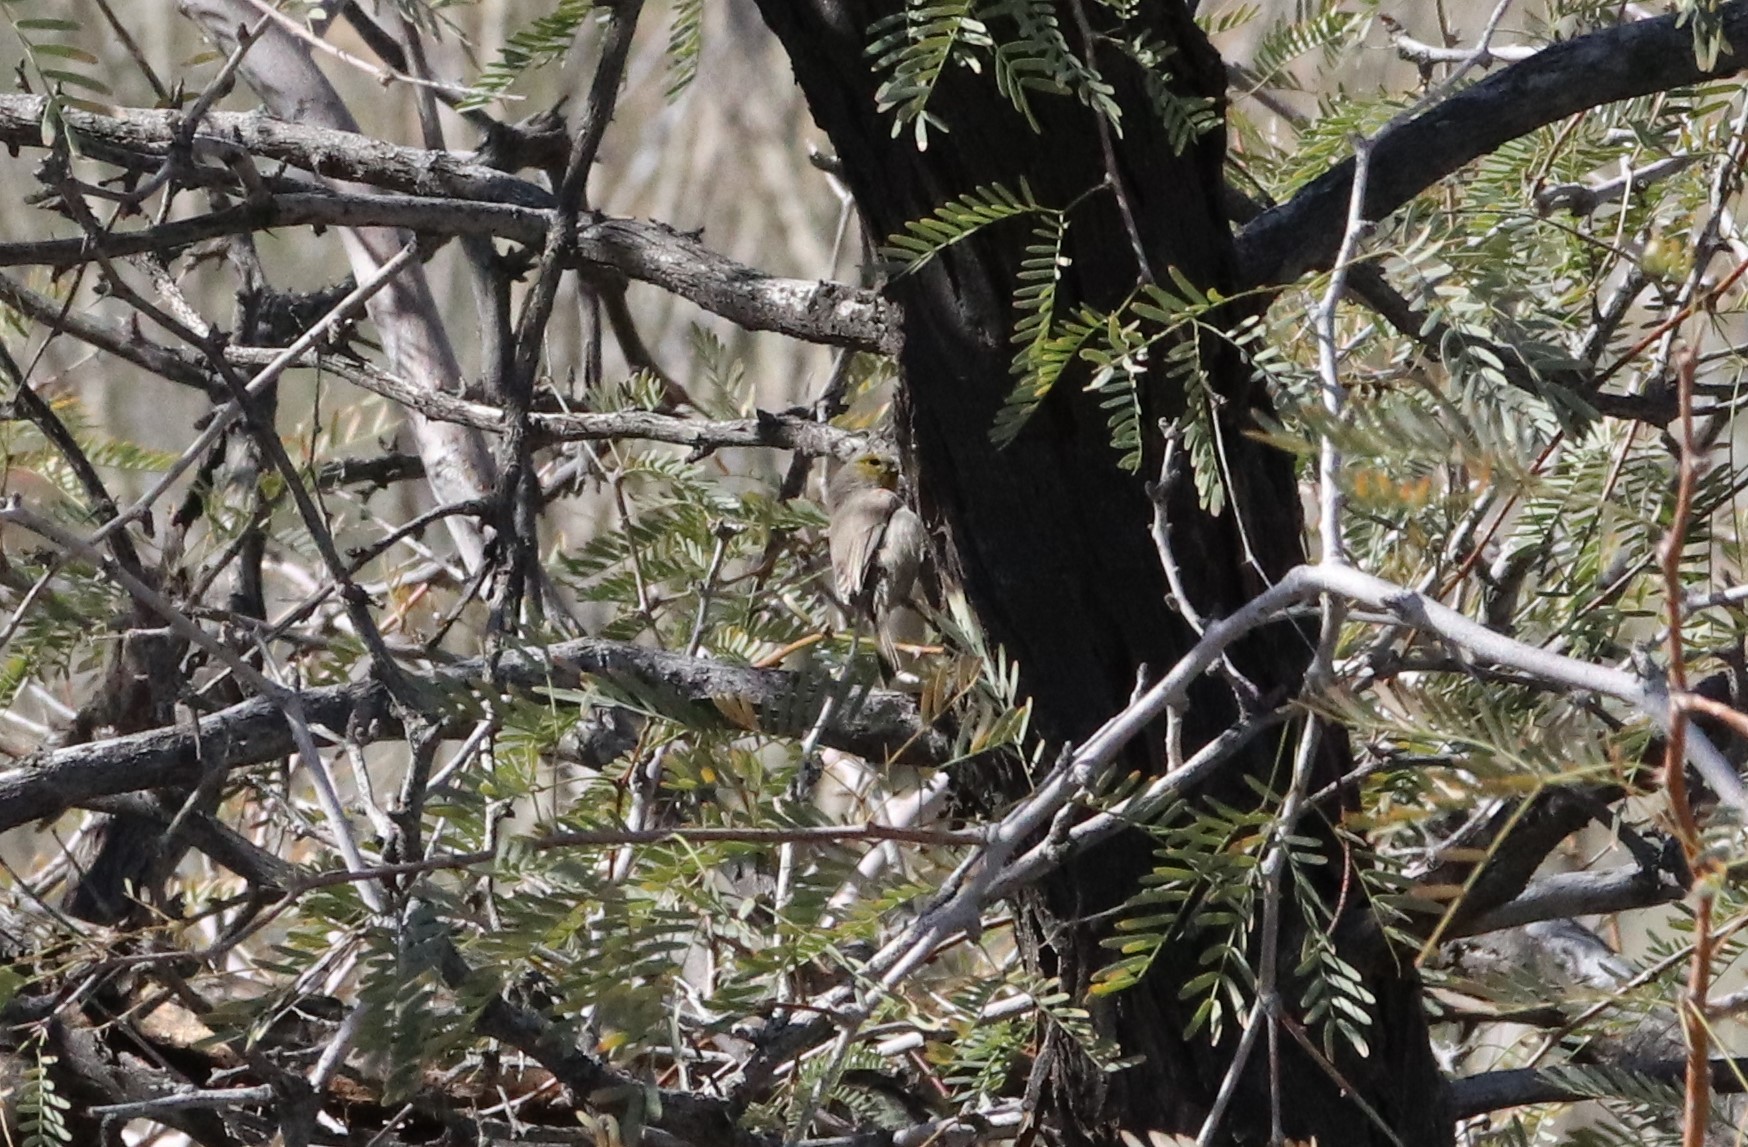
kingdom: Animalia
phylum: Chordata
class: Aves
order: Passeriformes
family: Remizidae
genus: Auriparus
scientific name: Auriparus flaviceps
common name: Verdin
